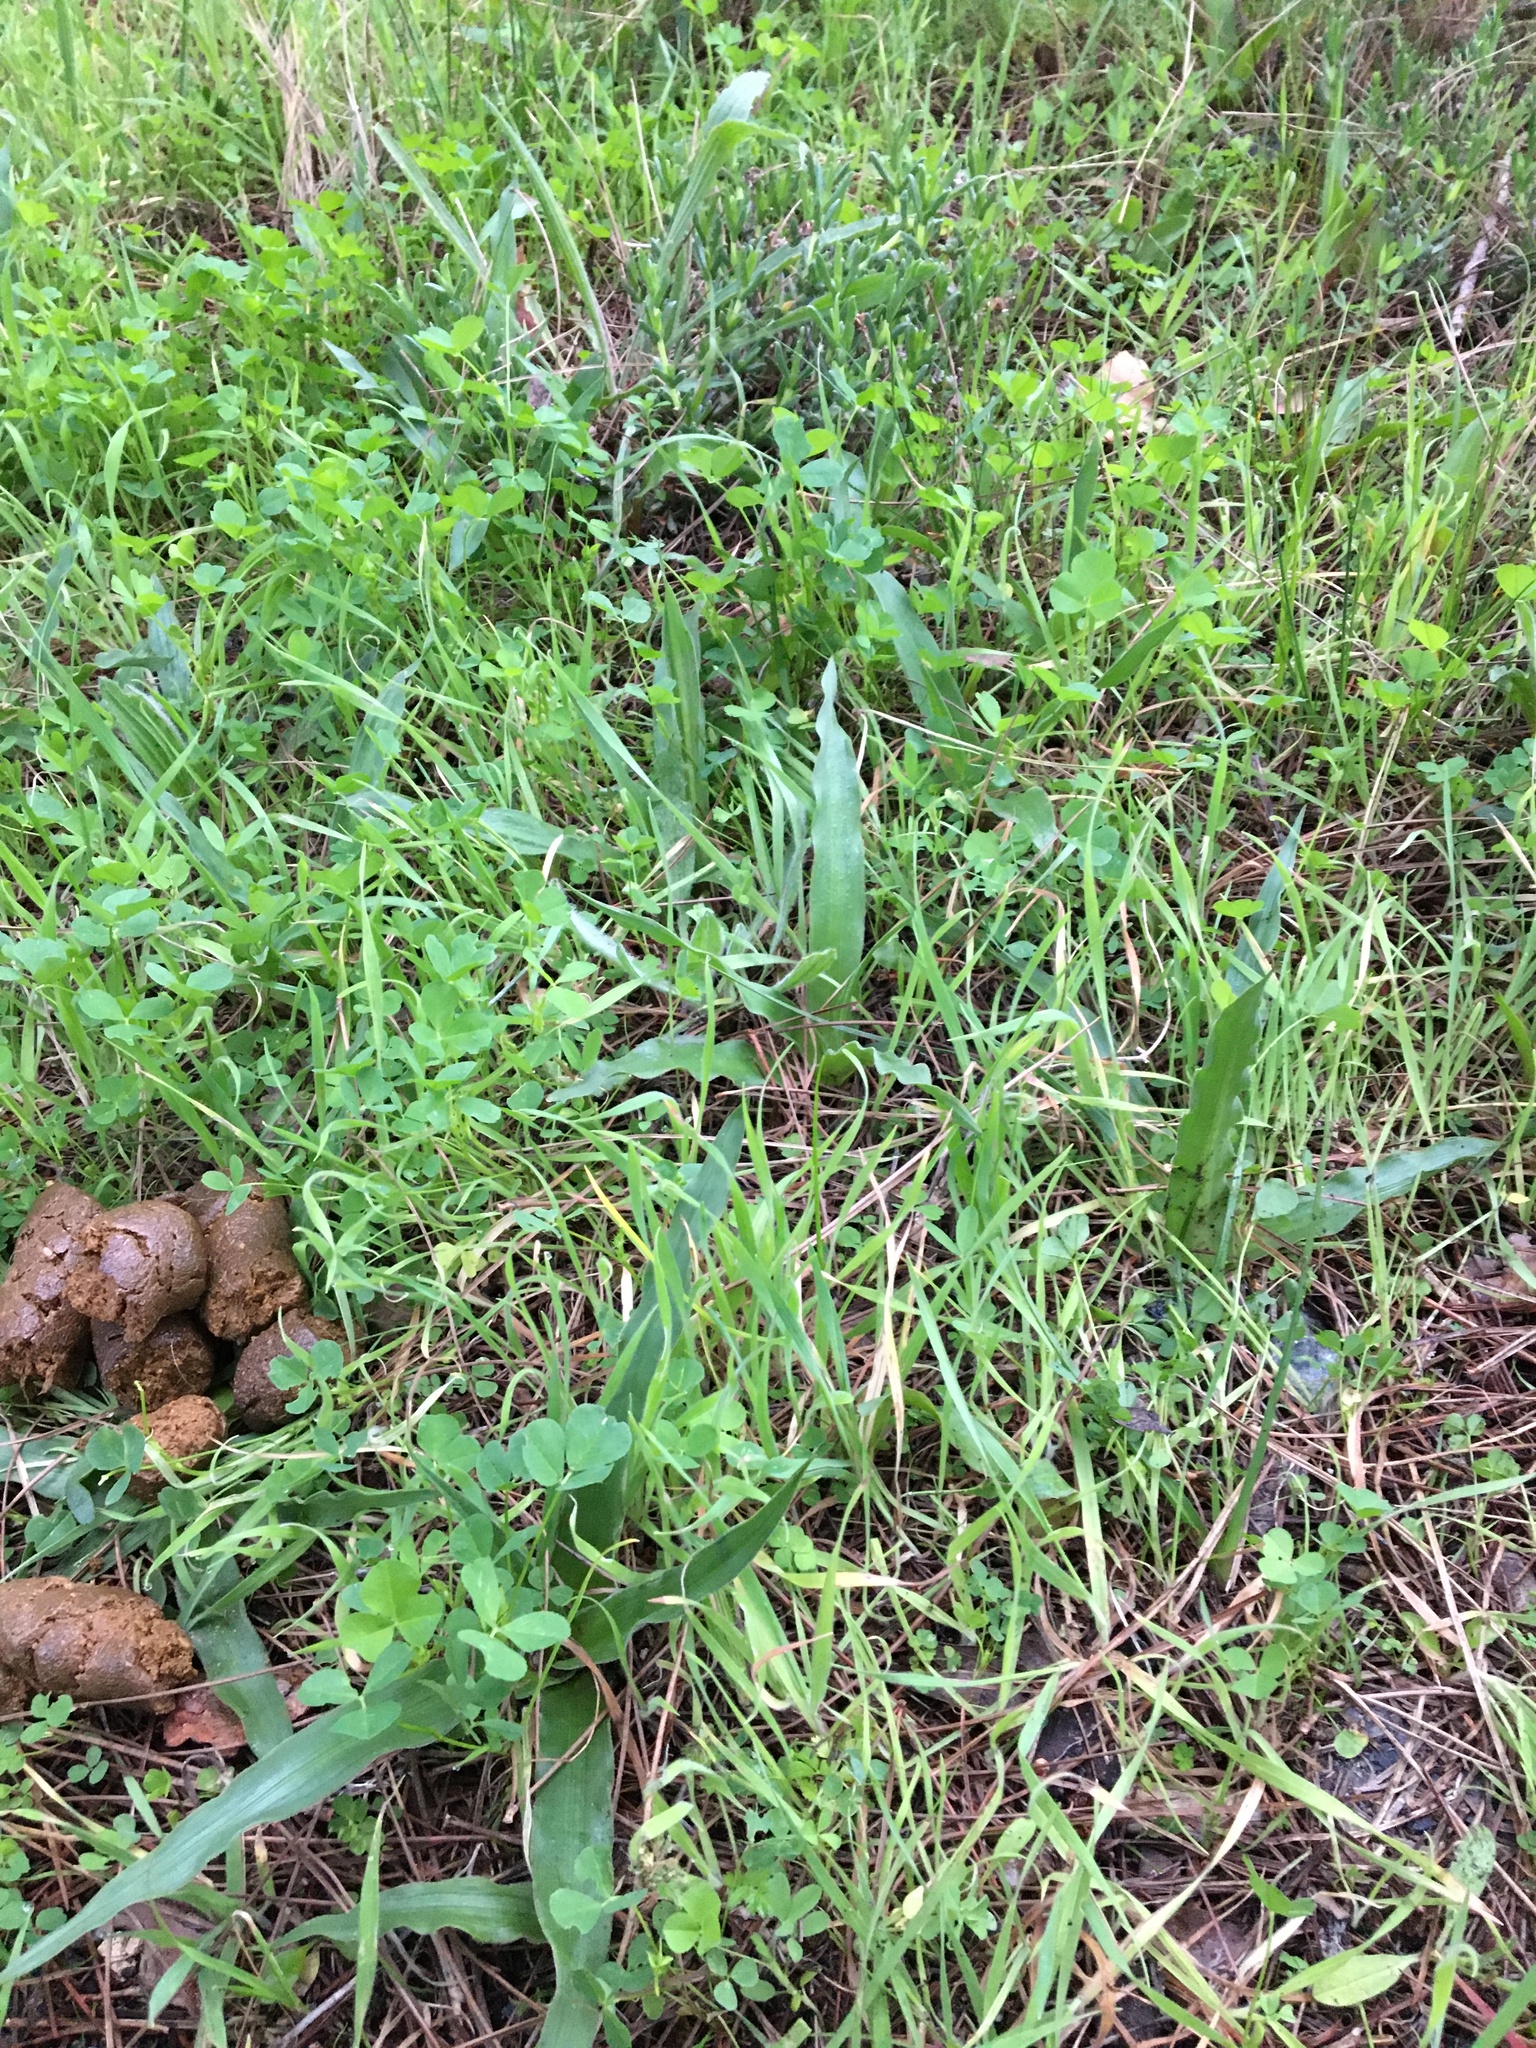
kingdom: Plantae
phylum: Tracheophyta
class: Liliopsida
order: Asparagales
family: Tecophilaeaceae
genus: Cyanella
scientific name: Cyanella hyacinthoides
